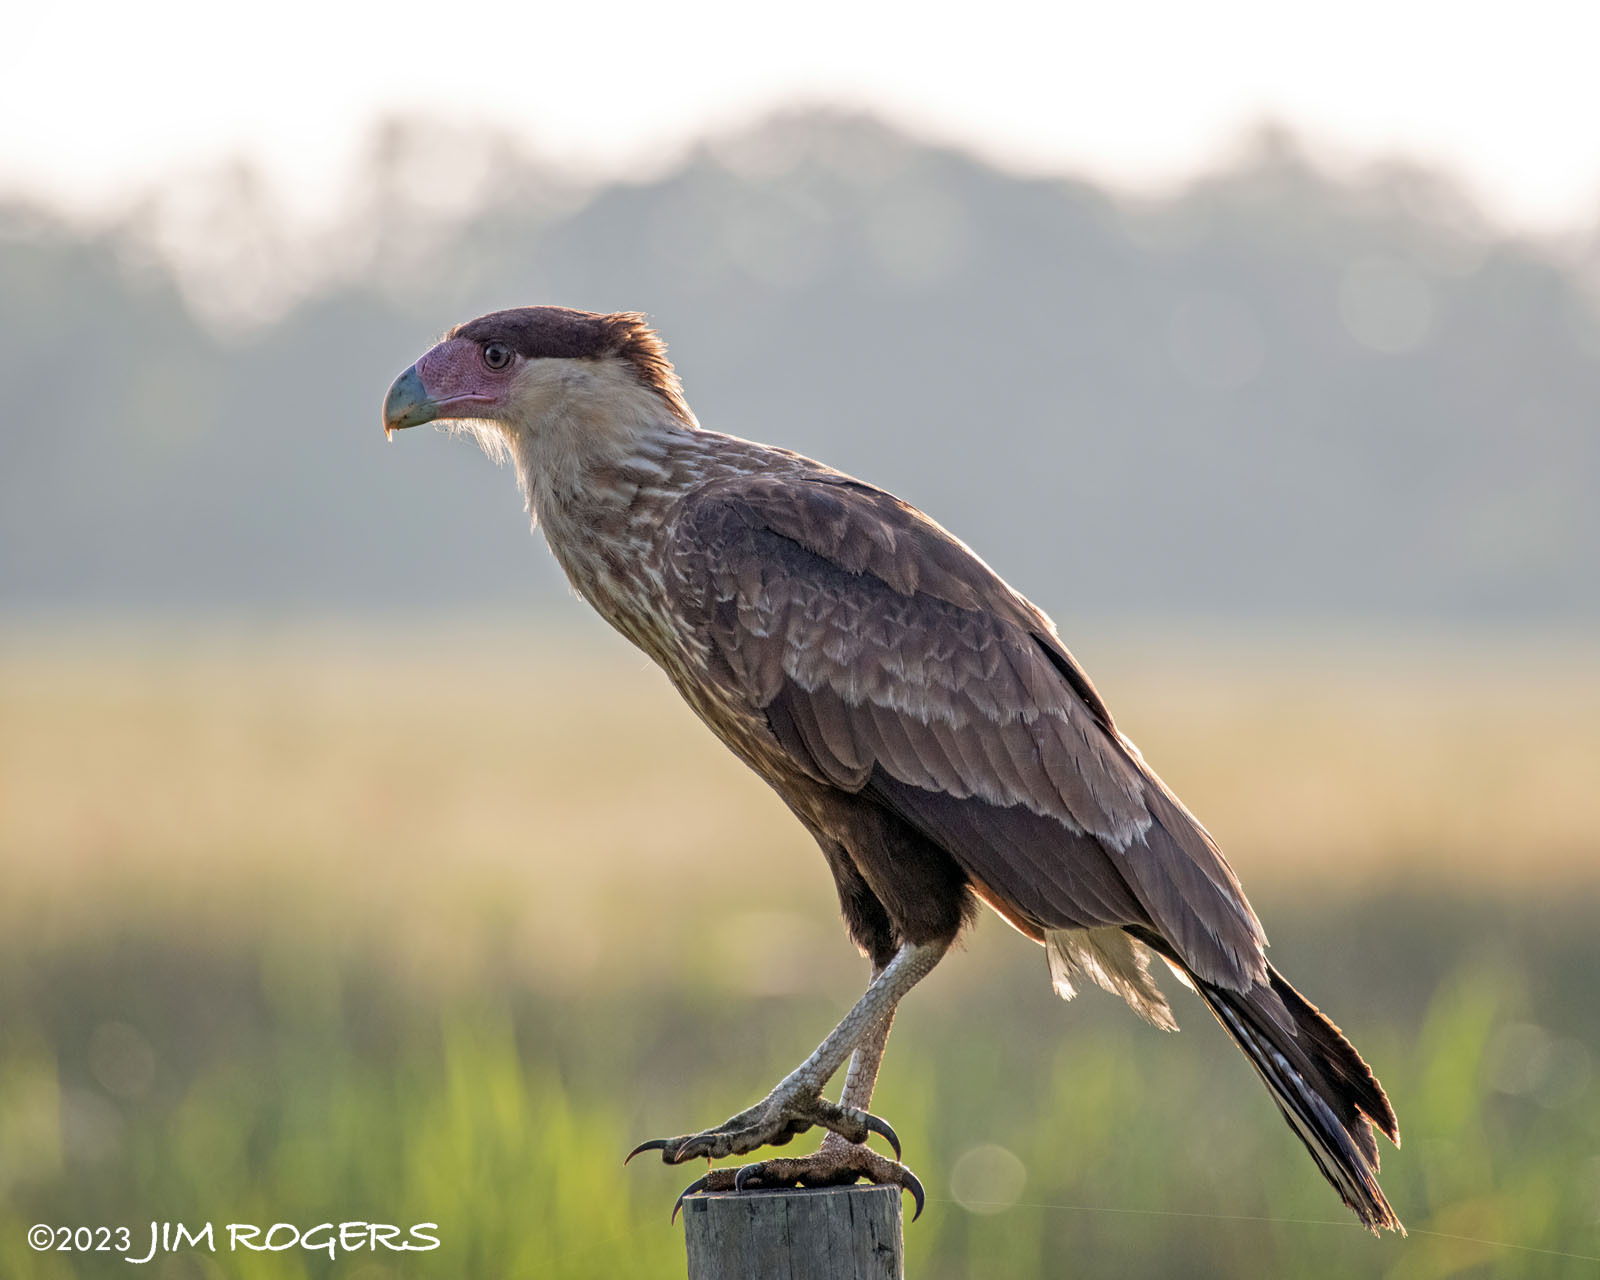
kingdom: Animalia
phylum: Chordata
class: Aves
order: Falconiformes
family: Falconidae
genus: Caracara
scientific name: Caracara plancus
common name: Southern caracara
